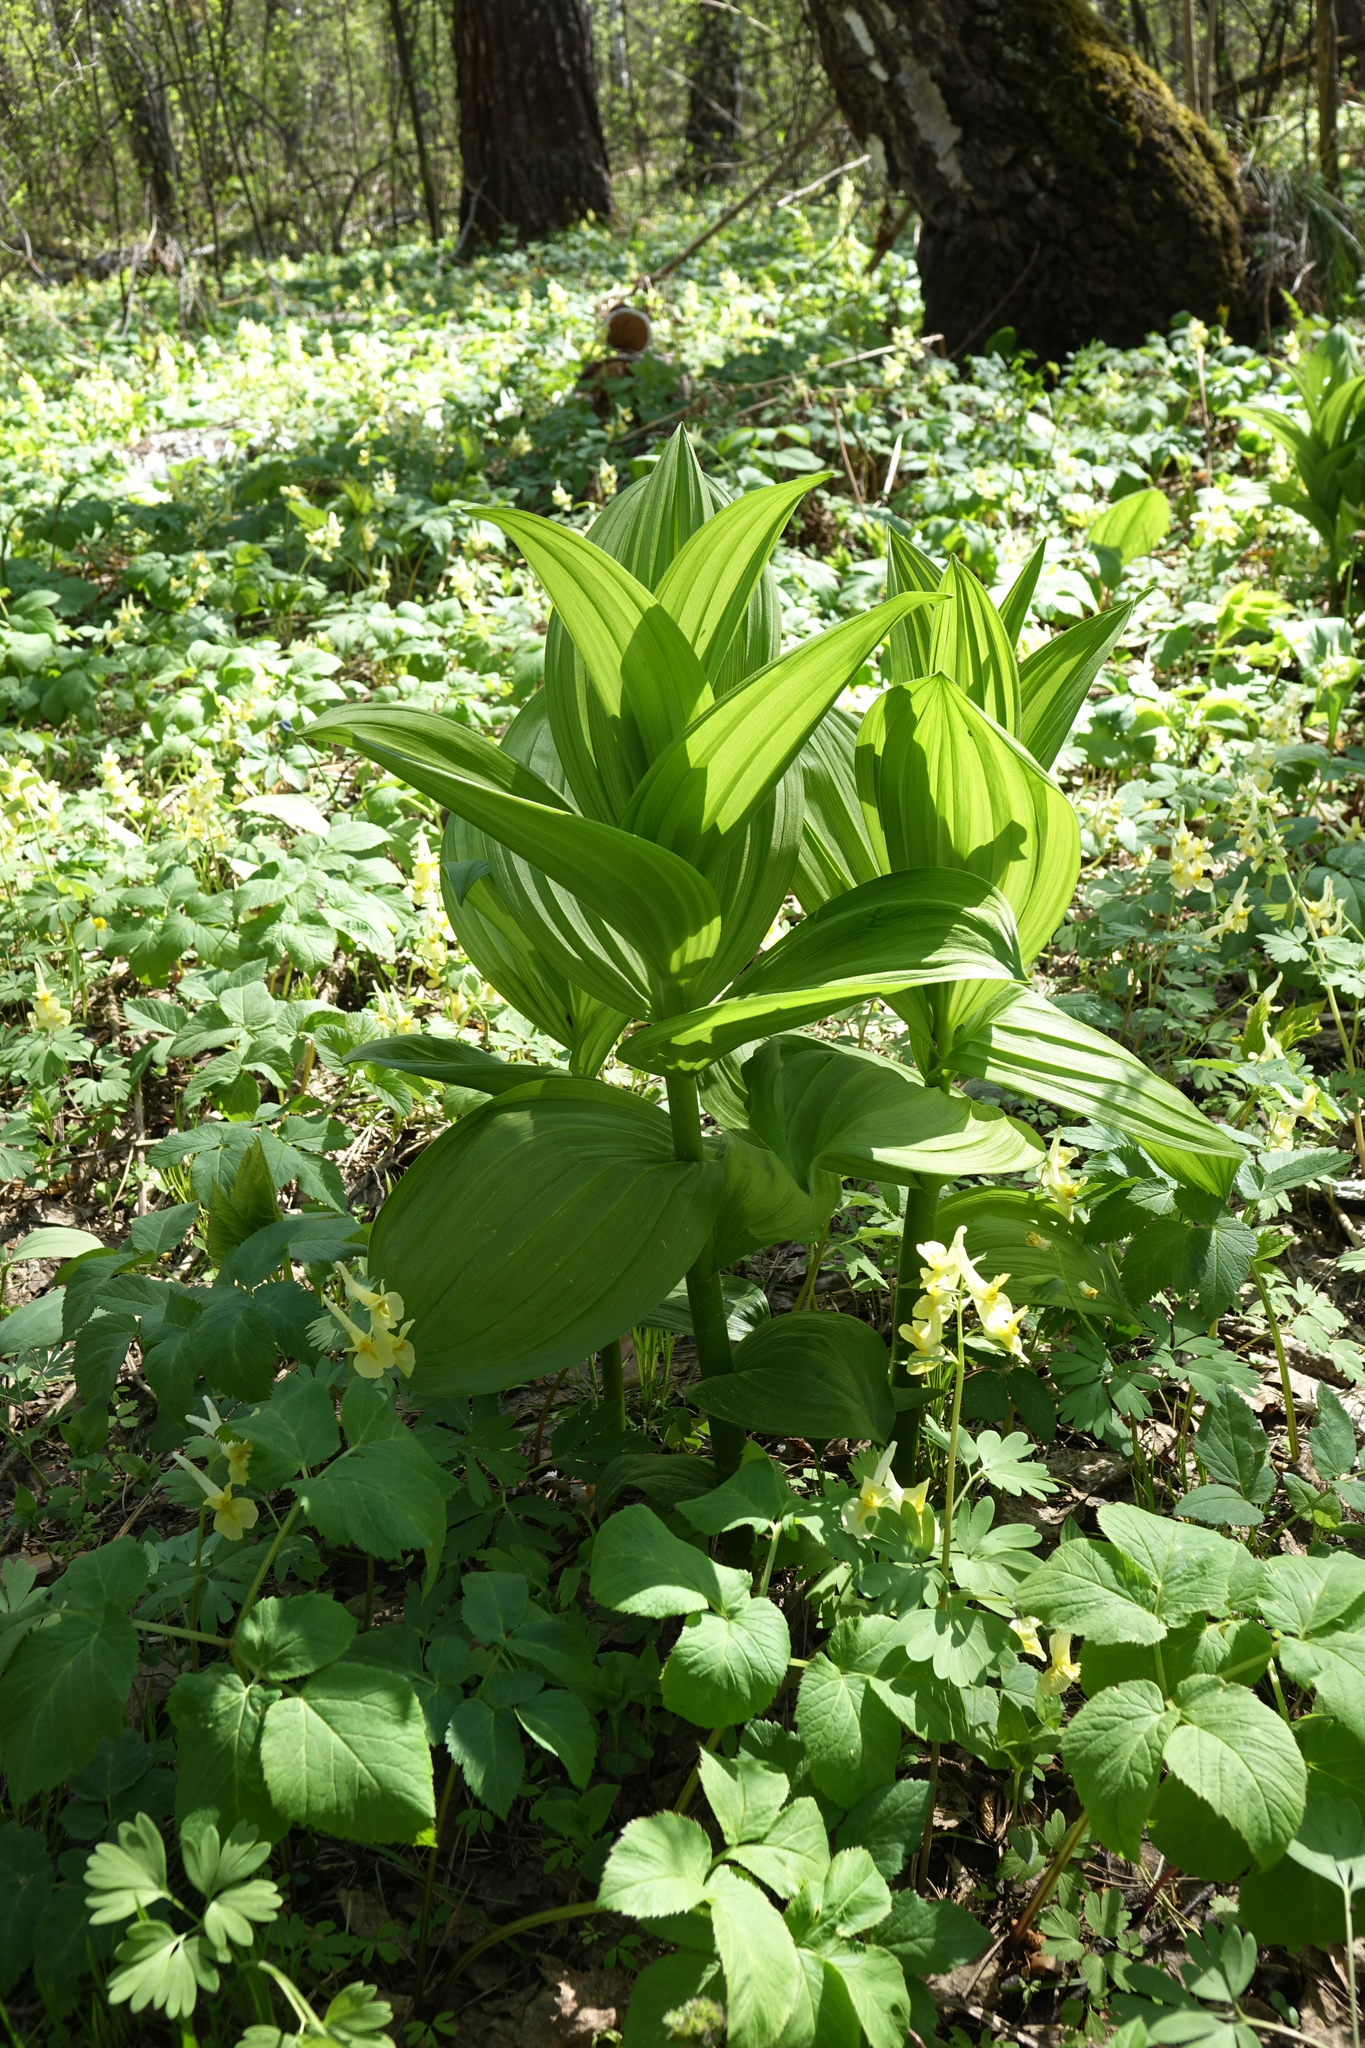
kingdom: Plantae
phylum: Tracheophyta
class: Liliopsida
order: Liliales
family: Melanthiaceae
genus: Veratrum
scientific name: Veratrum lobelianum
